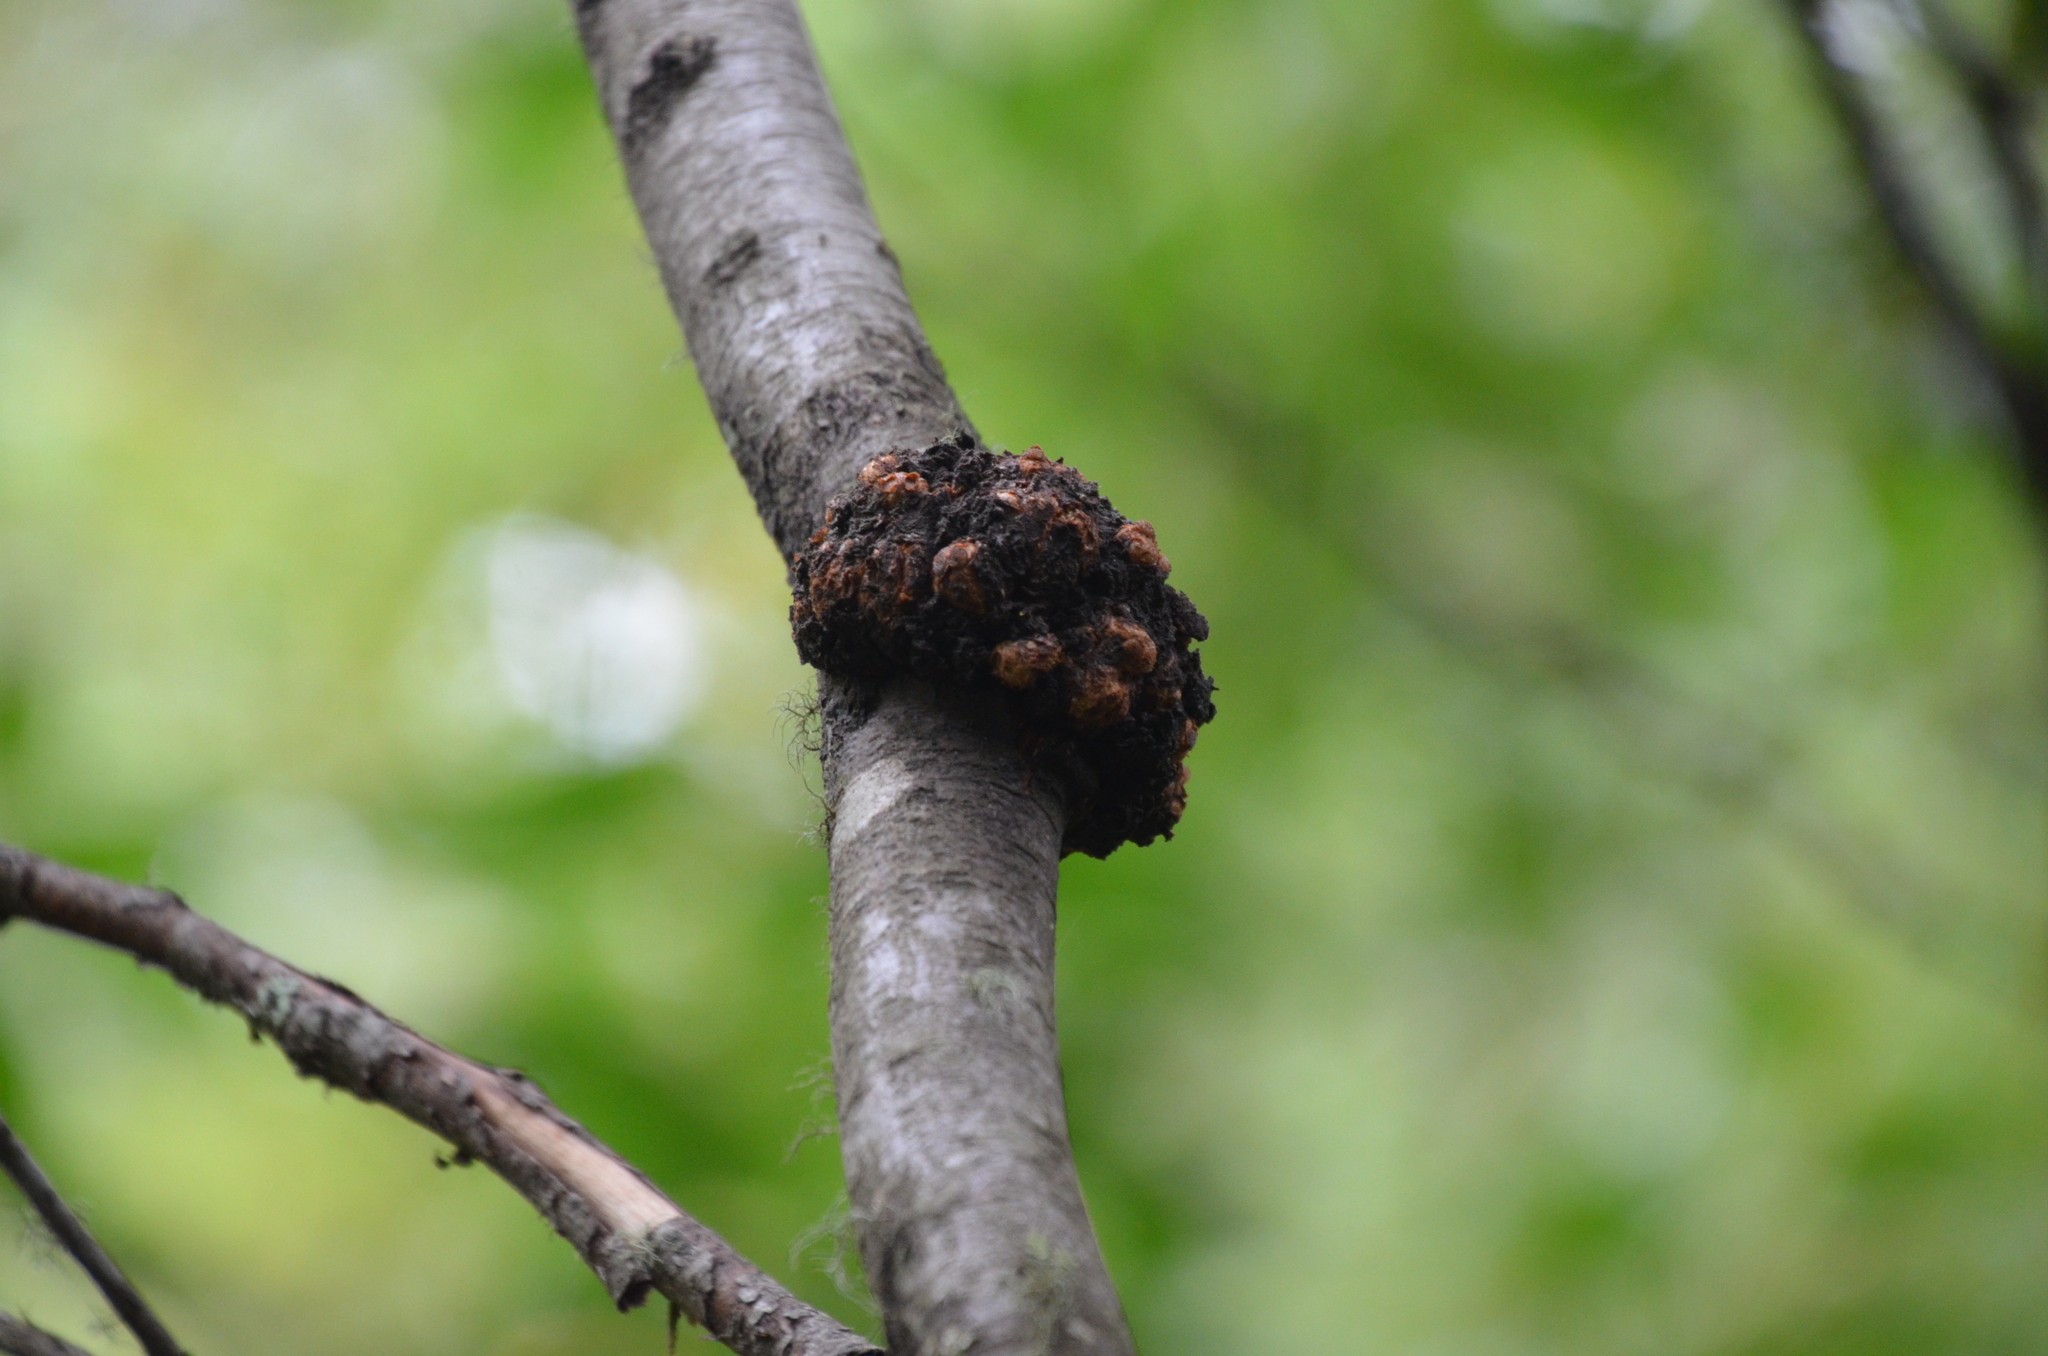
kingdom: Fungi
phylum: Ascomycota
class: Leotiomycetes
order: Cyttariales
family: Cyttariaceae
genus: Cyttaria
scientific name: Cyttaria hariotii
